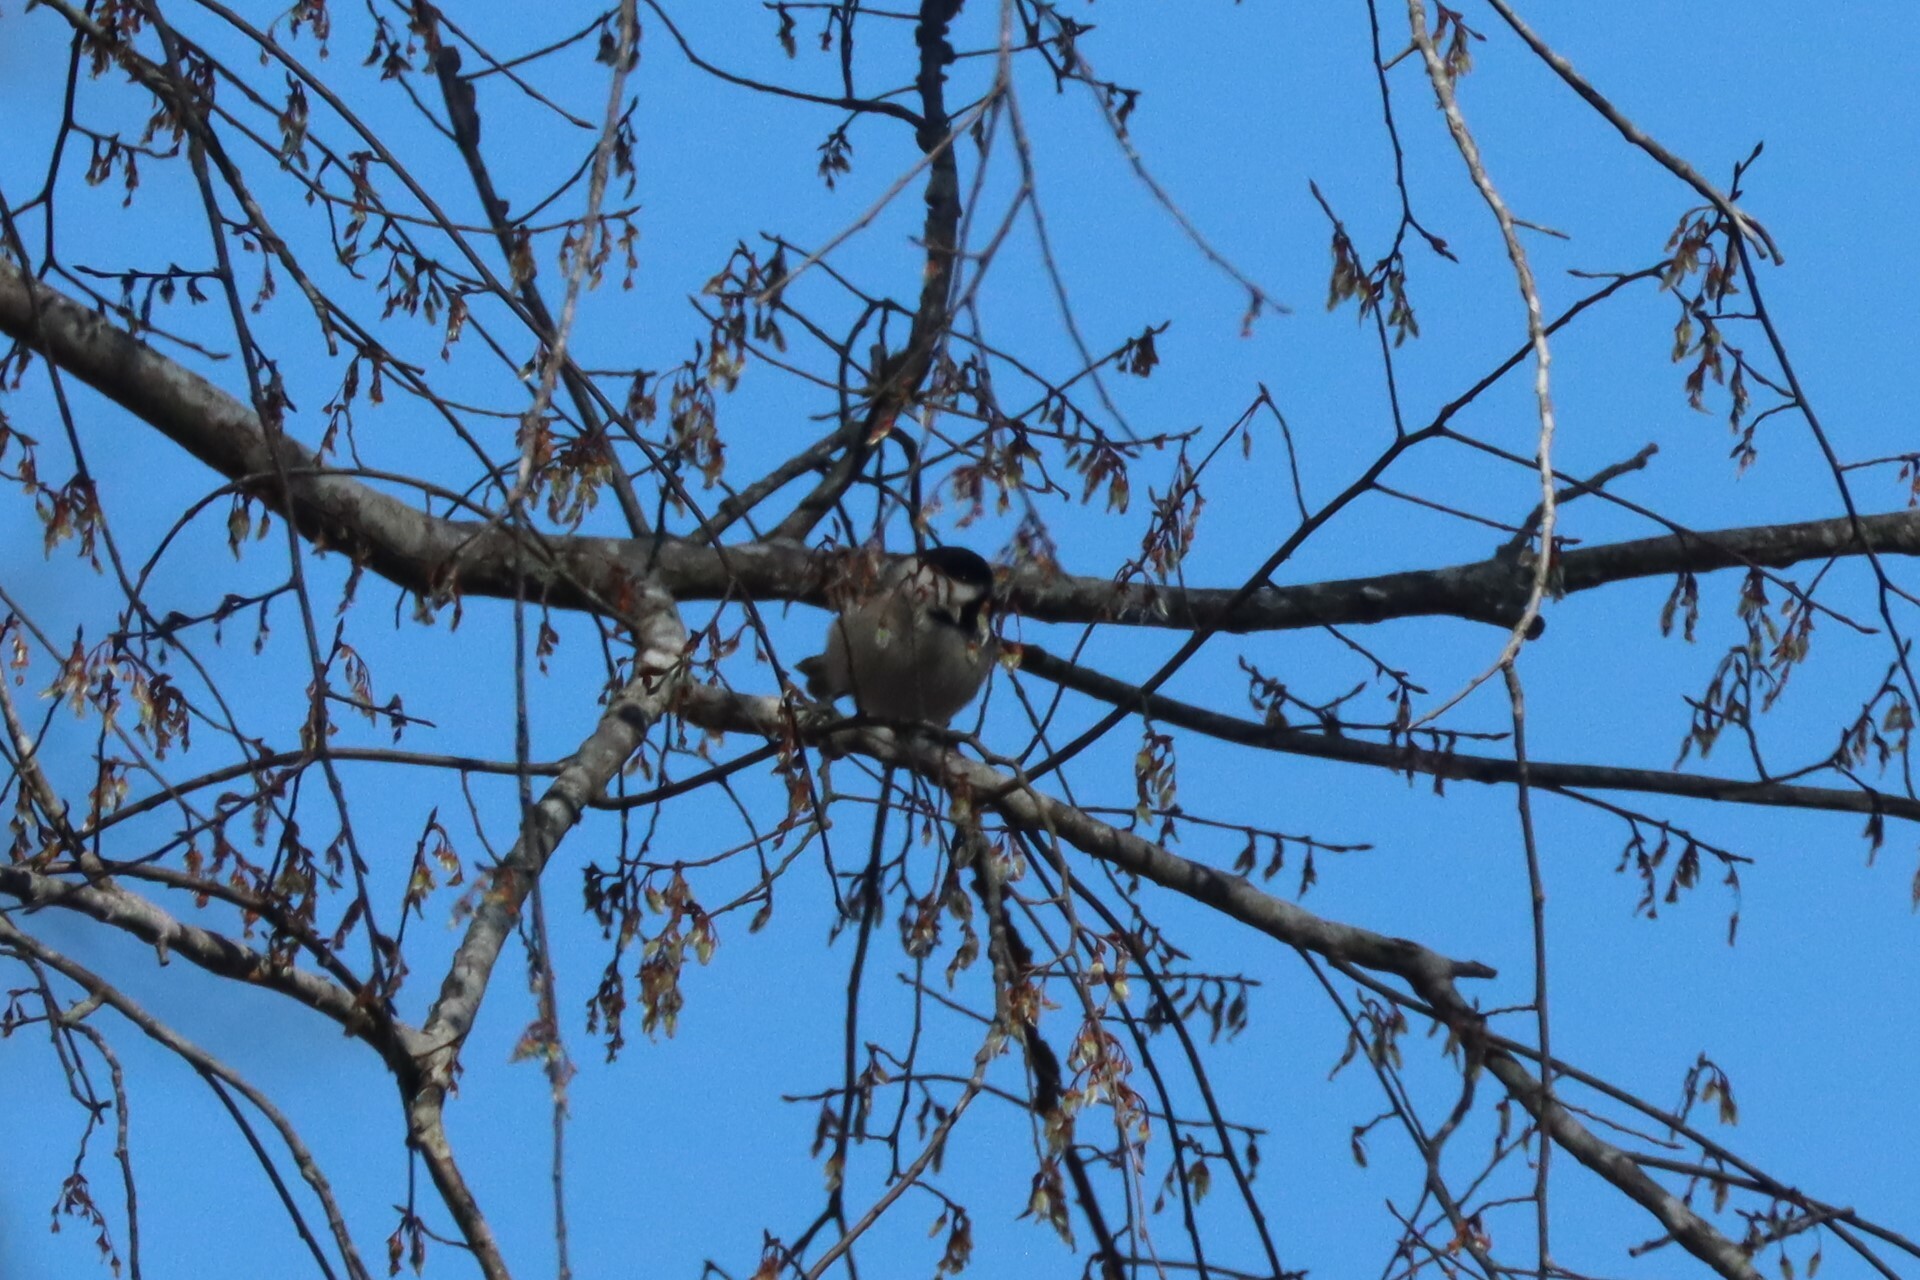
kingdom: Animalia
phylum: Chordata
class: Aves
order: Passeriformes
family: Paridae
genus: Poecile
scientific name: Poecile carolinensis
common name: Carolina chickadee
